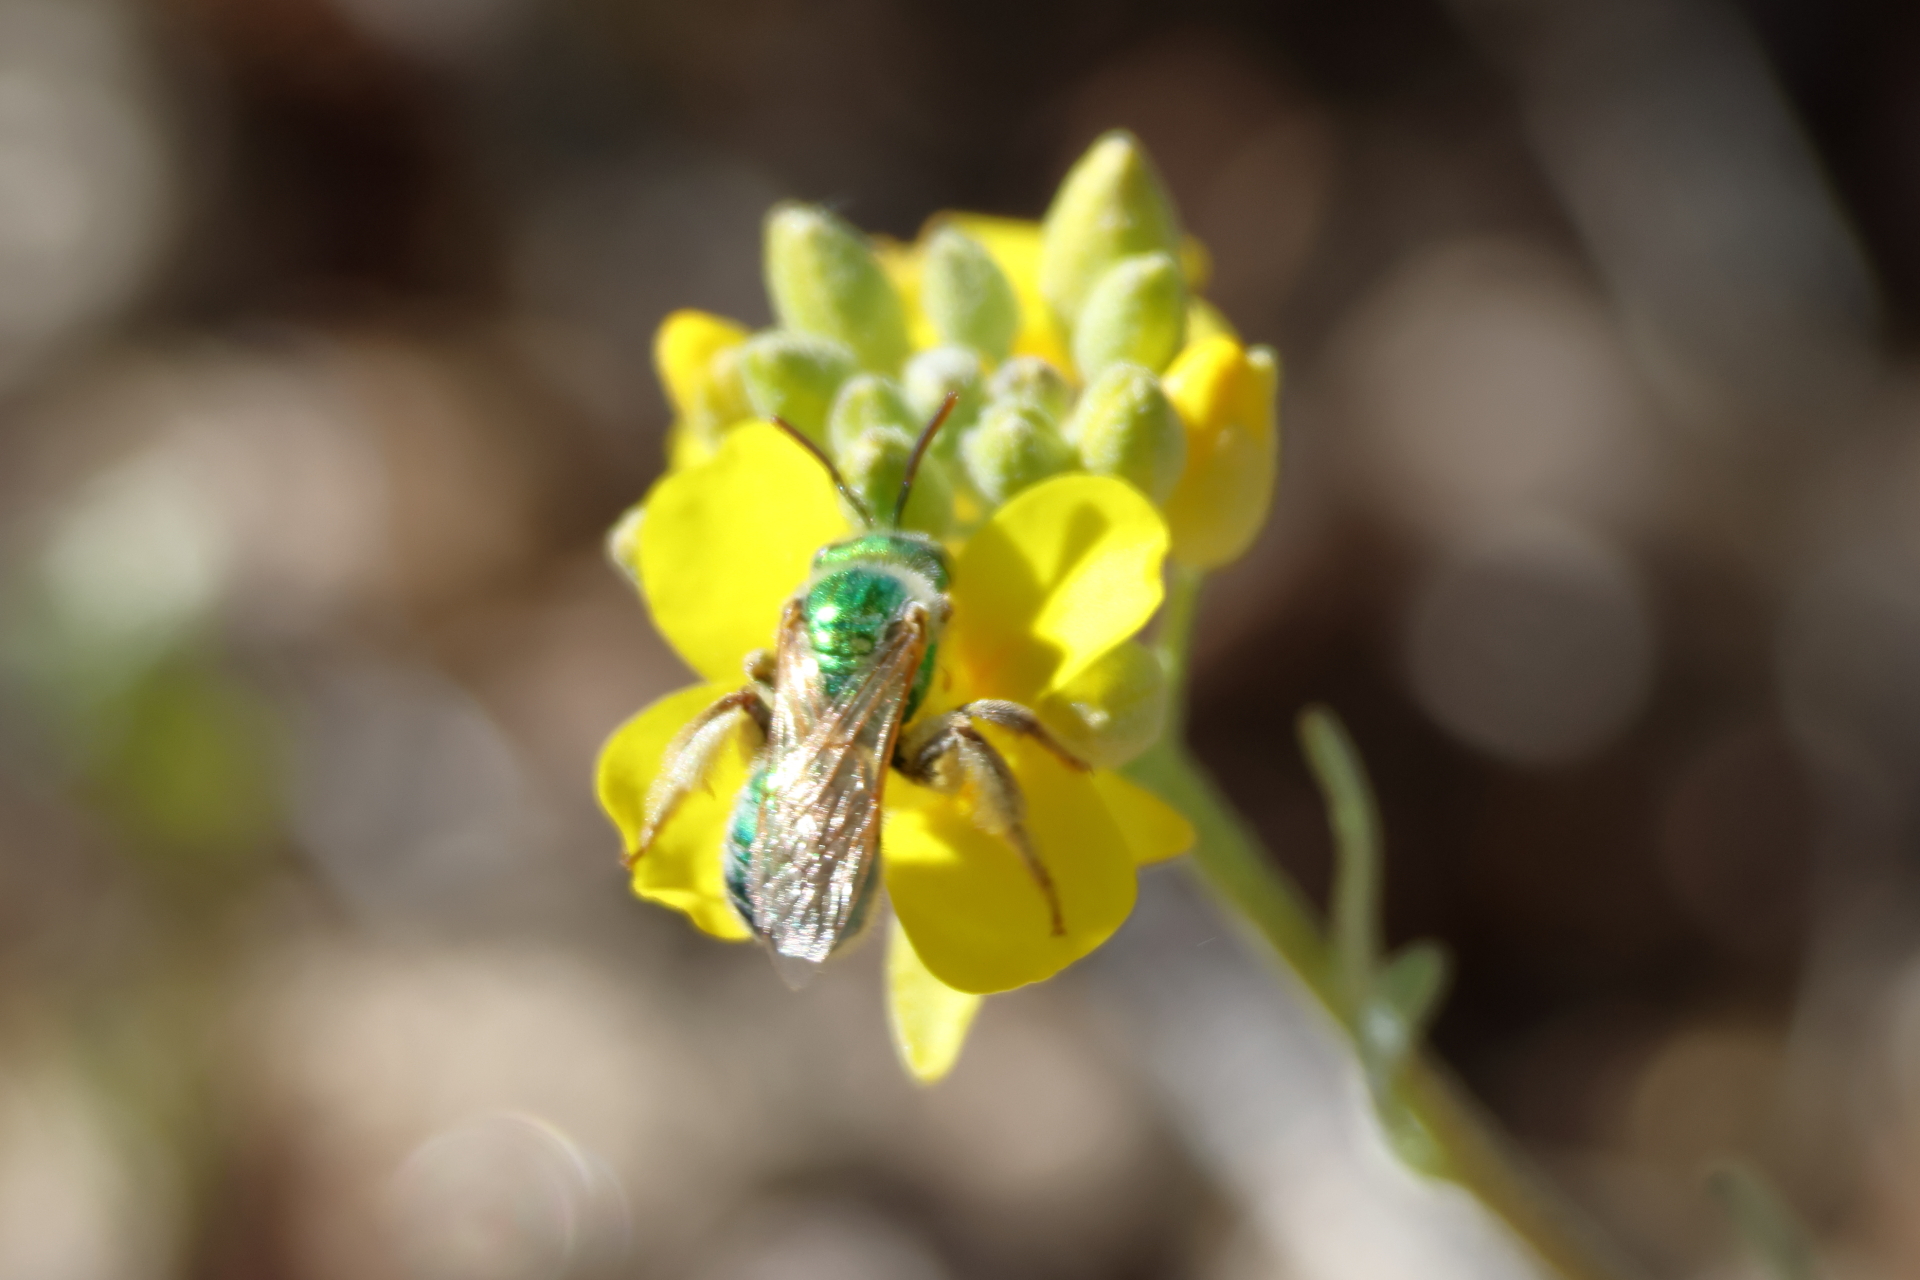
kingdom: Animalia
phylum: Arthropoda
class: Insecta
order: Hymenoptera
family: Halictidae
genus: Agapostemon
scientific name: Agapostemon angelicus
